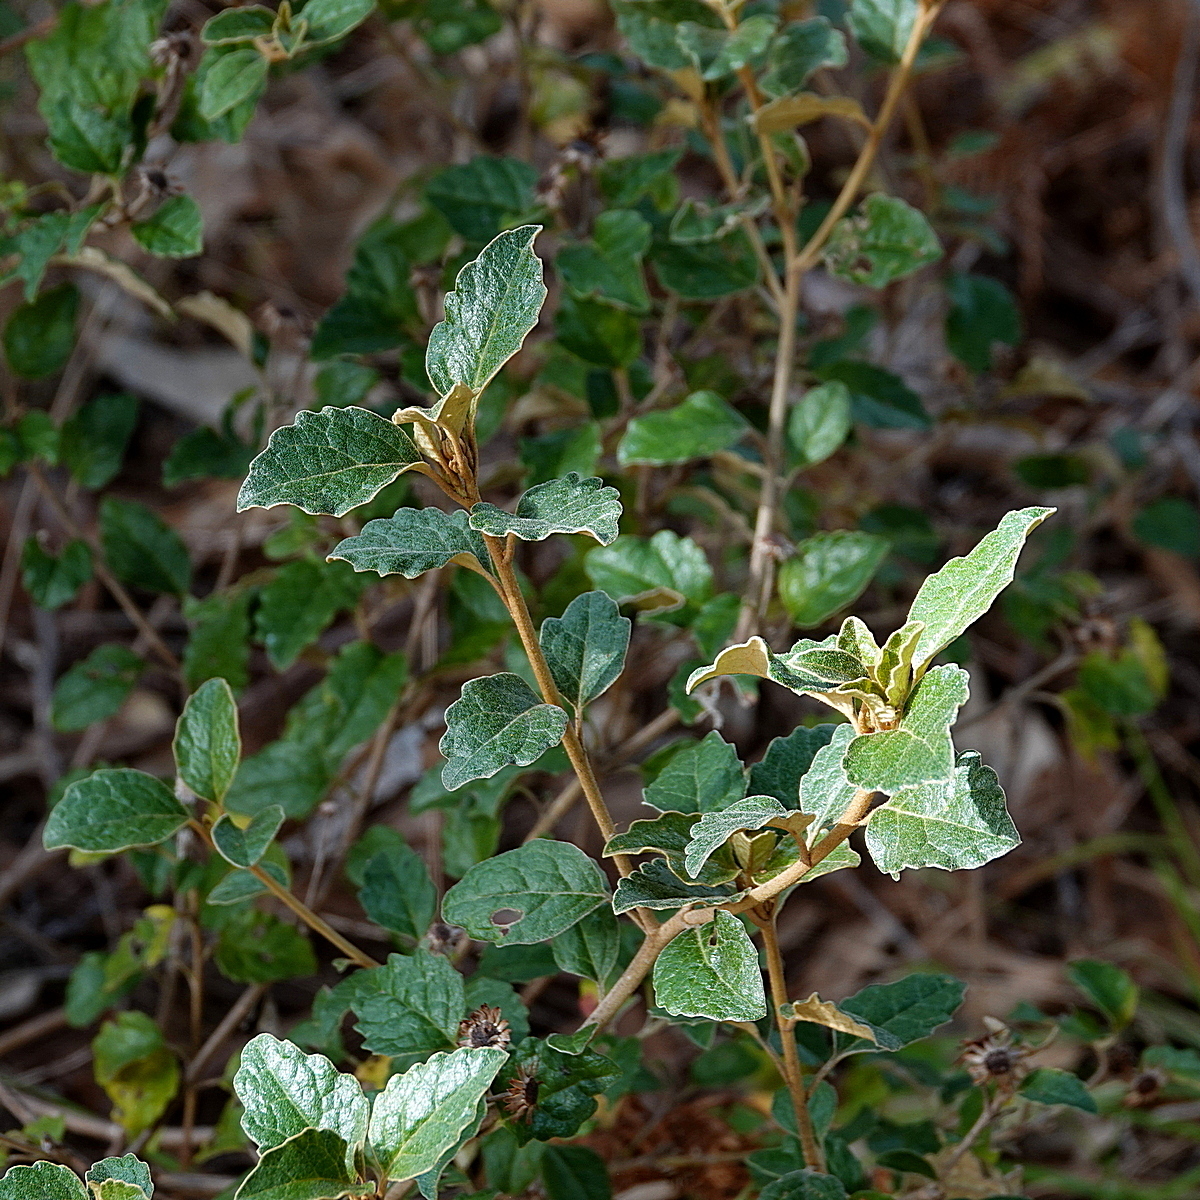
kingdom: Plantae
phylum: Tracheophyta
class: Magnoliopsida
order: Asterales
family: Asteraceae
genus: Olearia
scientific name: Olearia tomentosa
